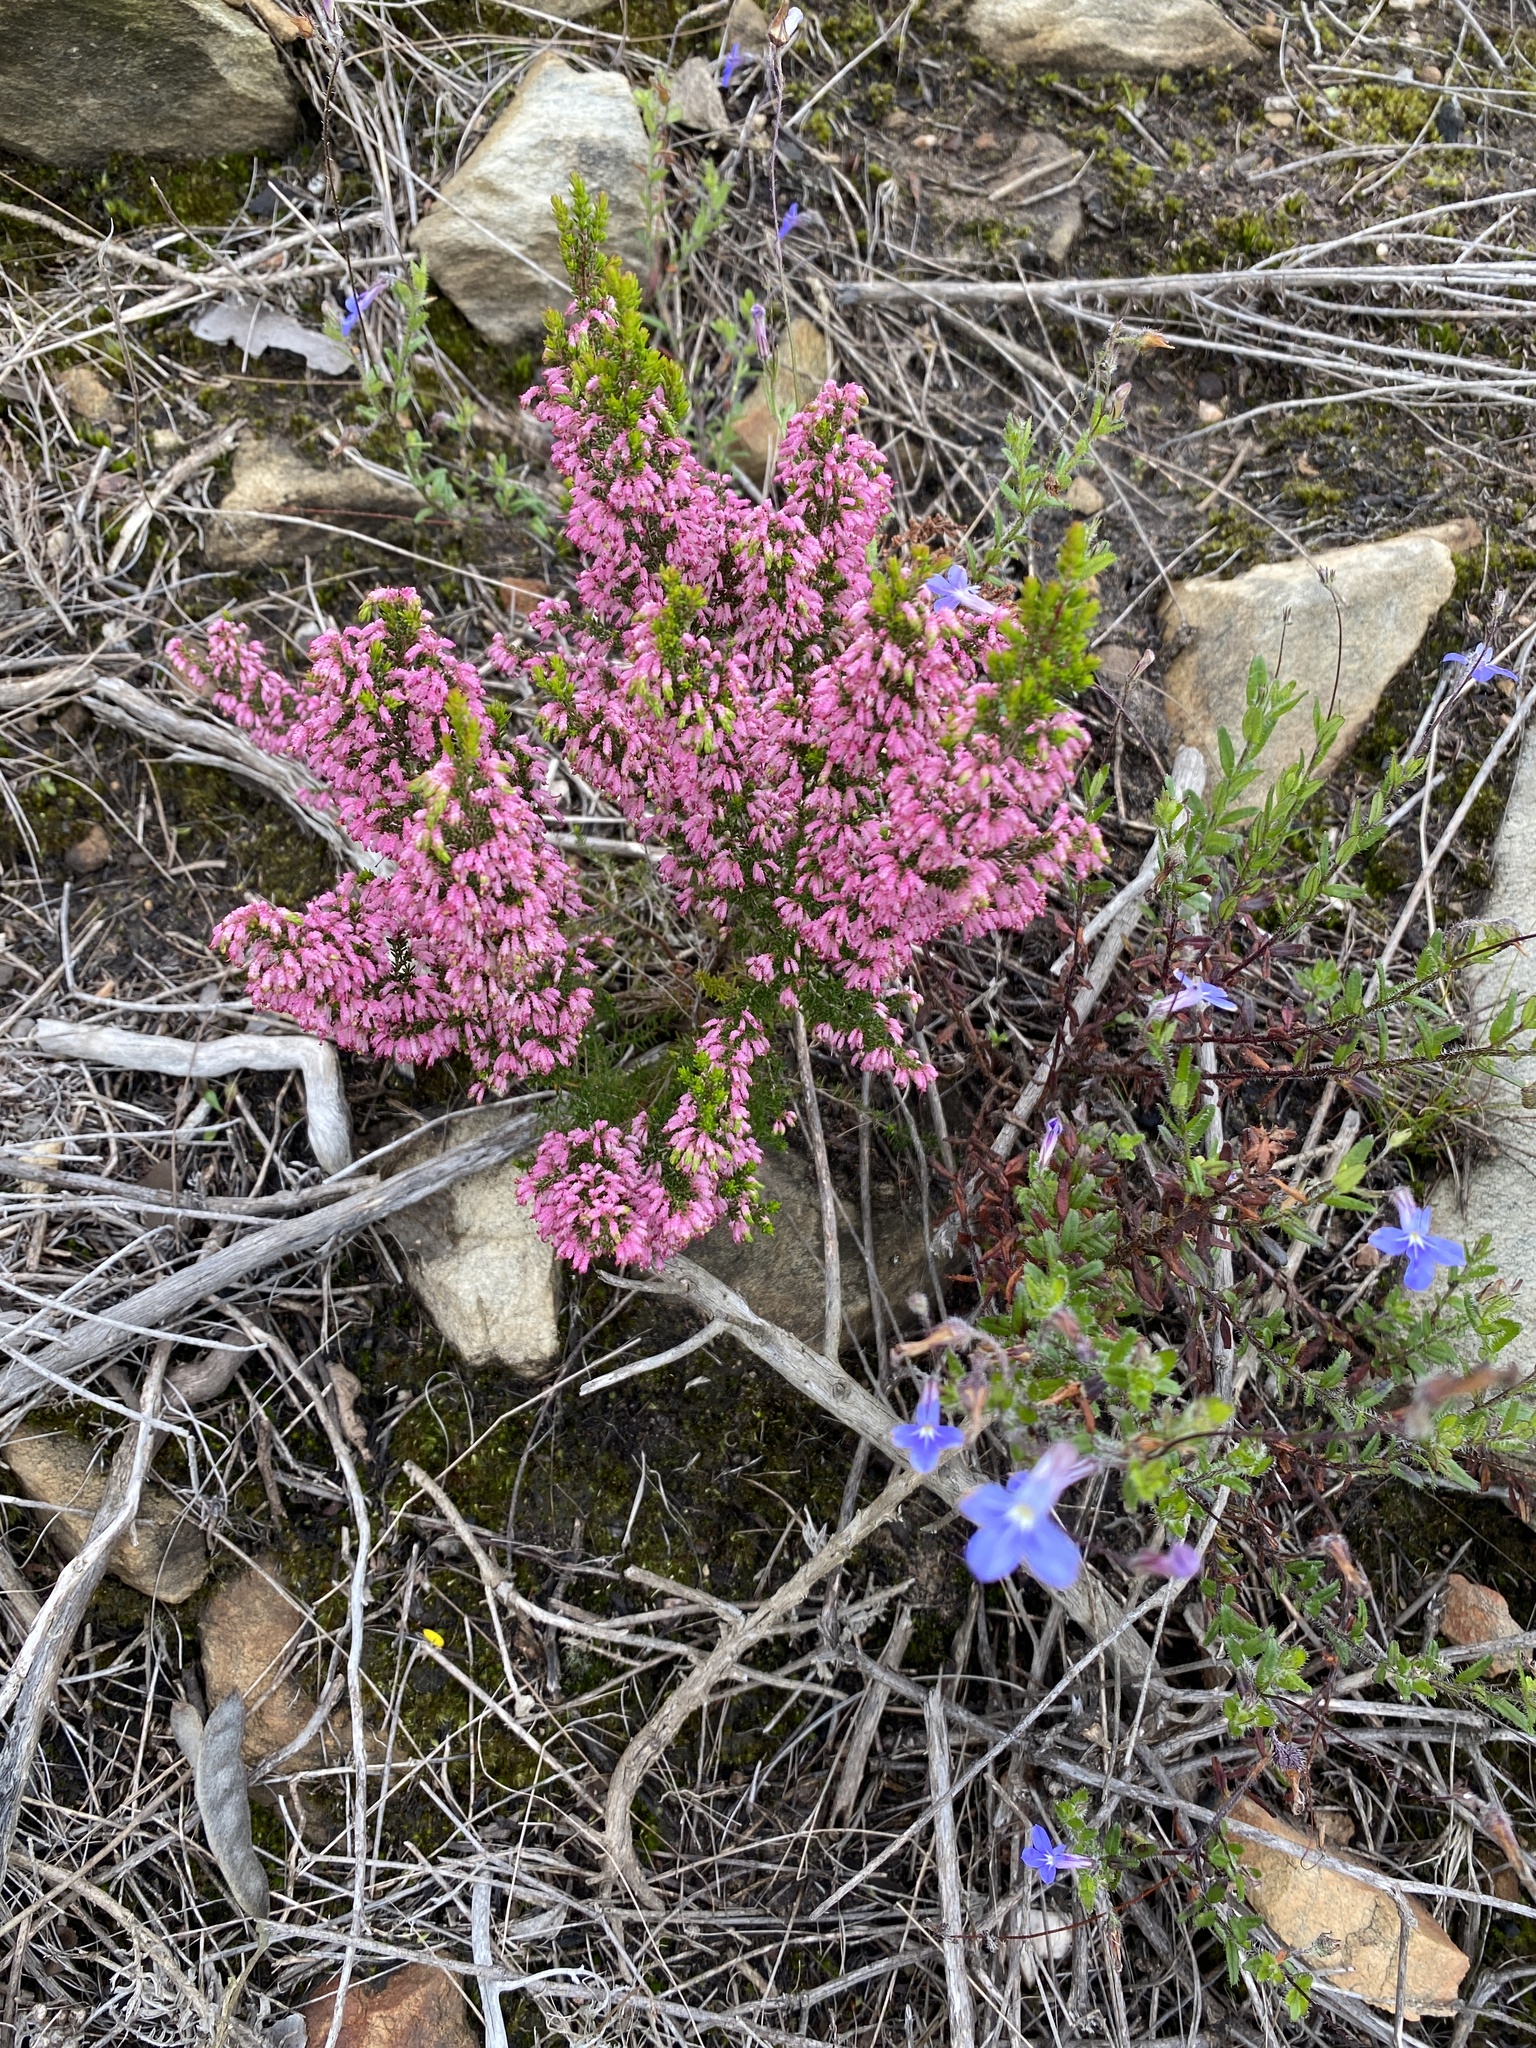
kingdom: Plantae
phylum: Tracheophyta
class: Magnoliopsida
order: Ericales
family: Ericaceae
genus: Erica
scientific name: Erica sparsa
